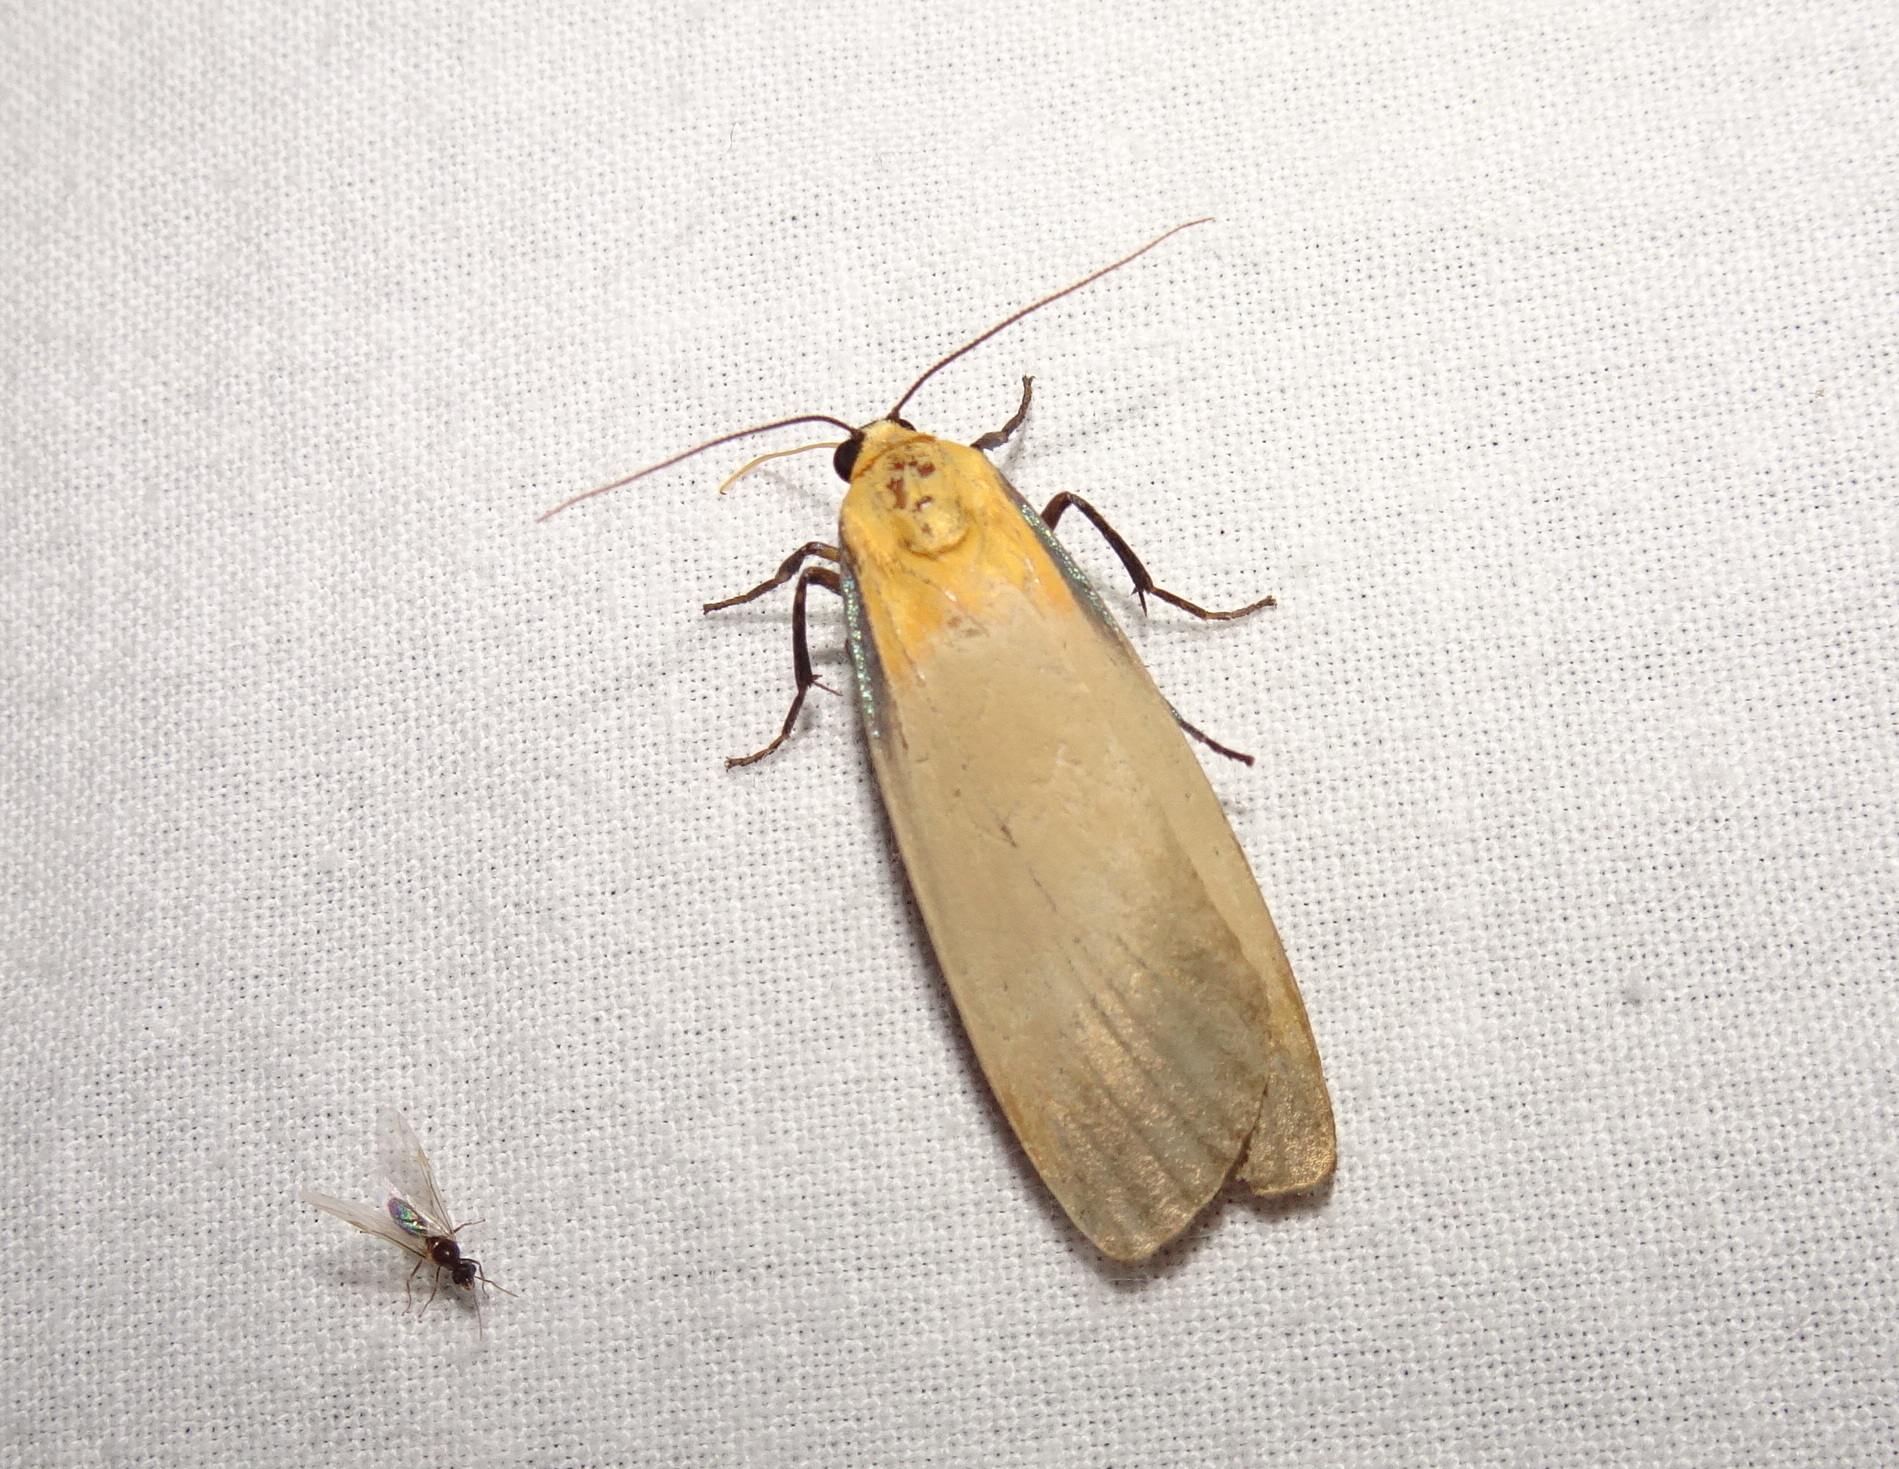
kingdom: Animalia
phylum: Arthropoda
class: Insecta
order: Lepidoptera
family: Erebidae
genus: Lithosia
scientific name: Lithosia quadra
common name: Four-spotted footman
